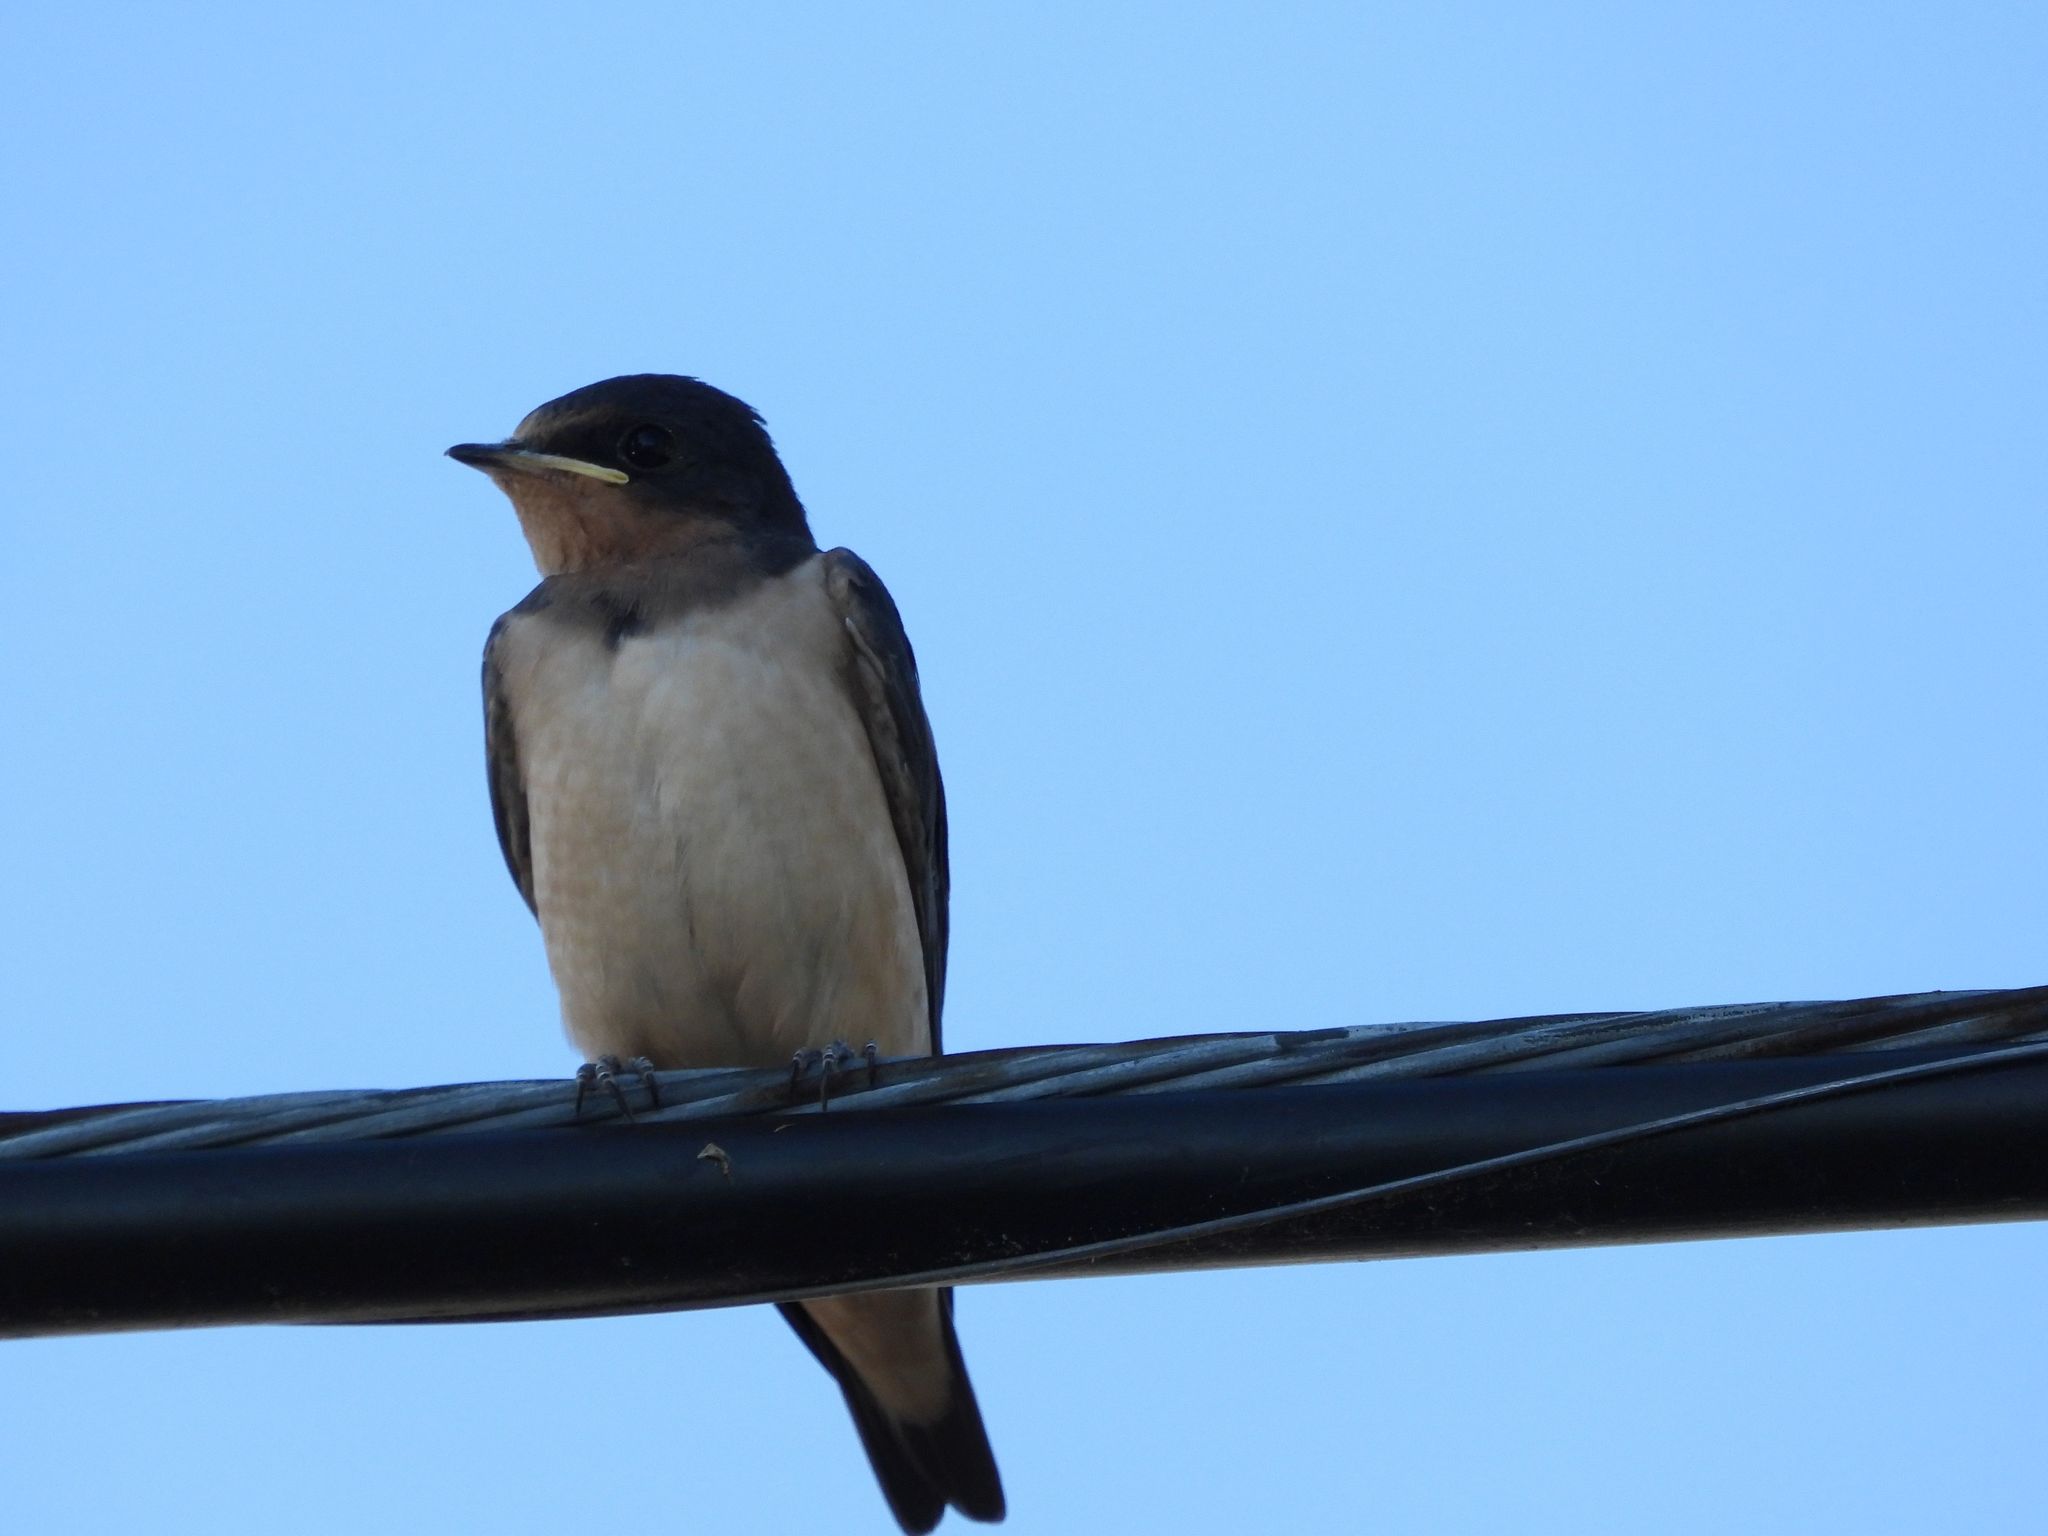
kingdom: Animalia
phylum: Chordata
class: Aves
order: Passeriformes
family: Hirundinidae
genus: Hirundo
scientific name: Hirundo rustica
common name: Barn swallow
